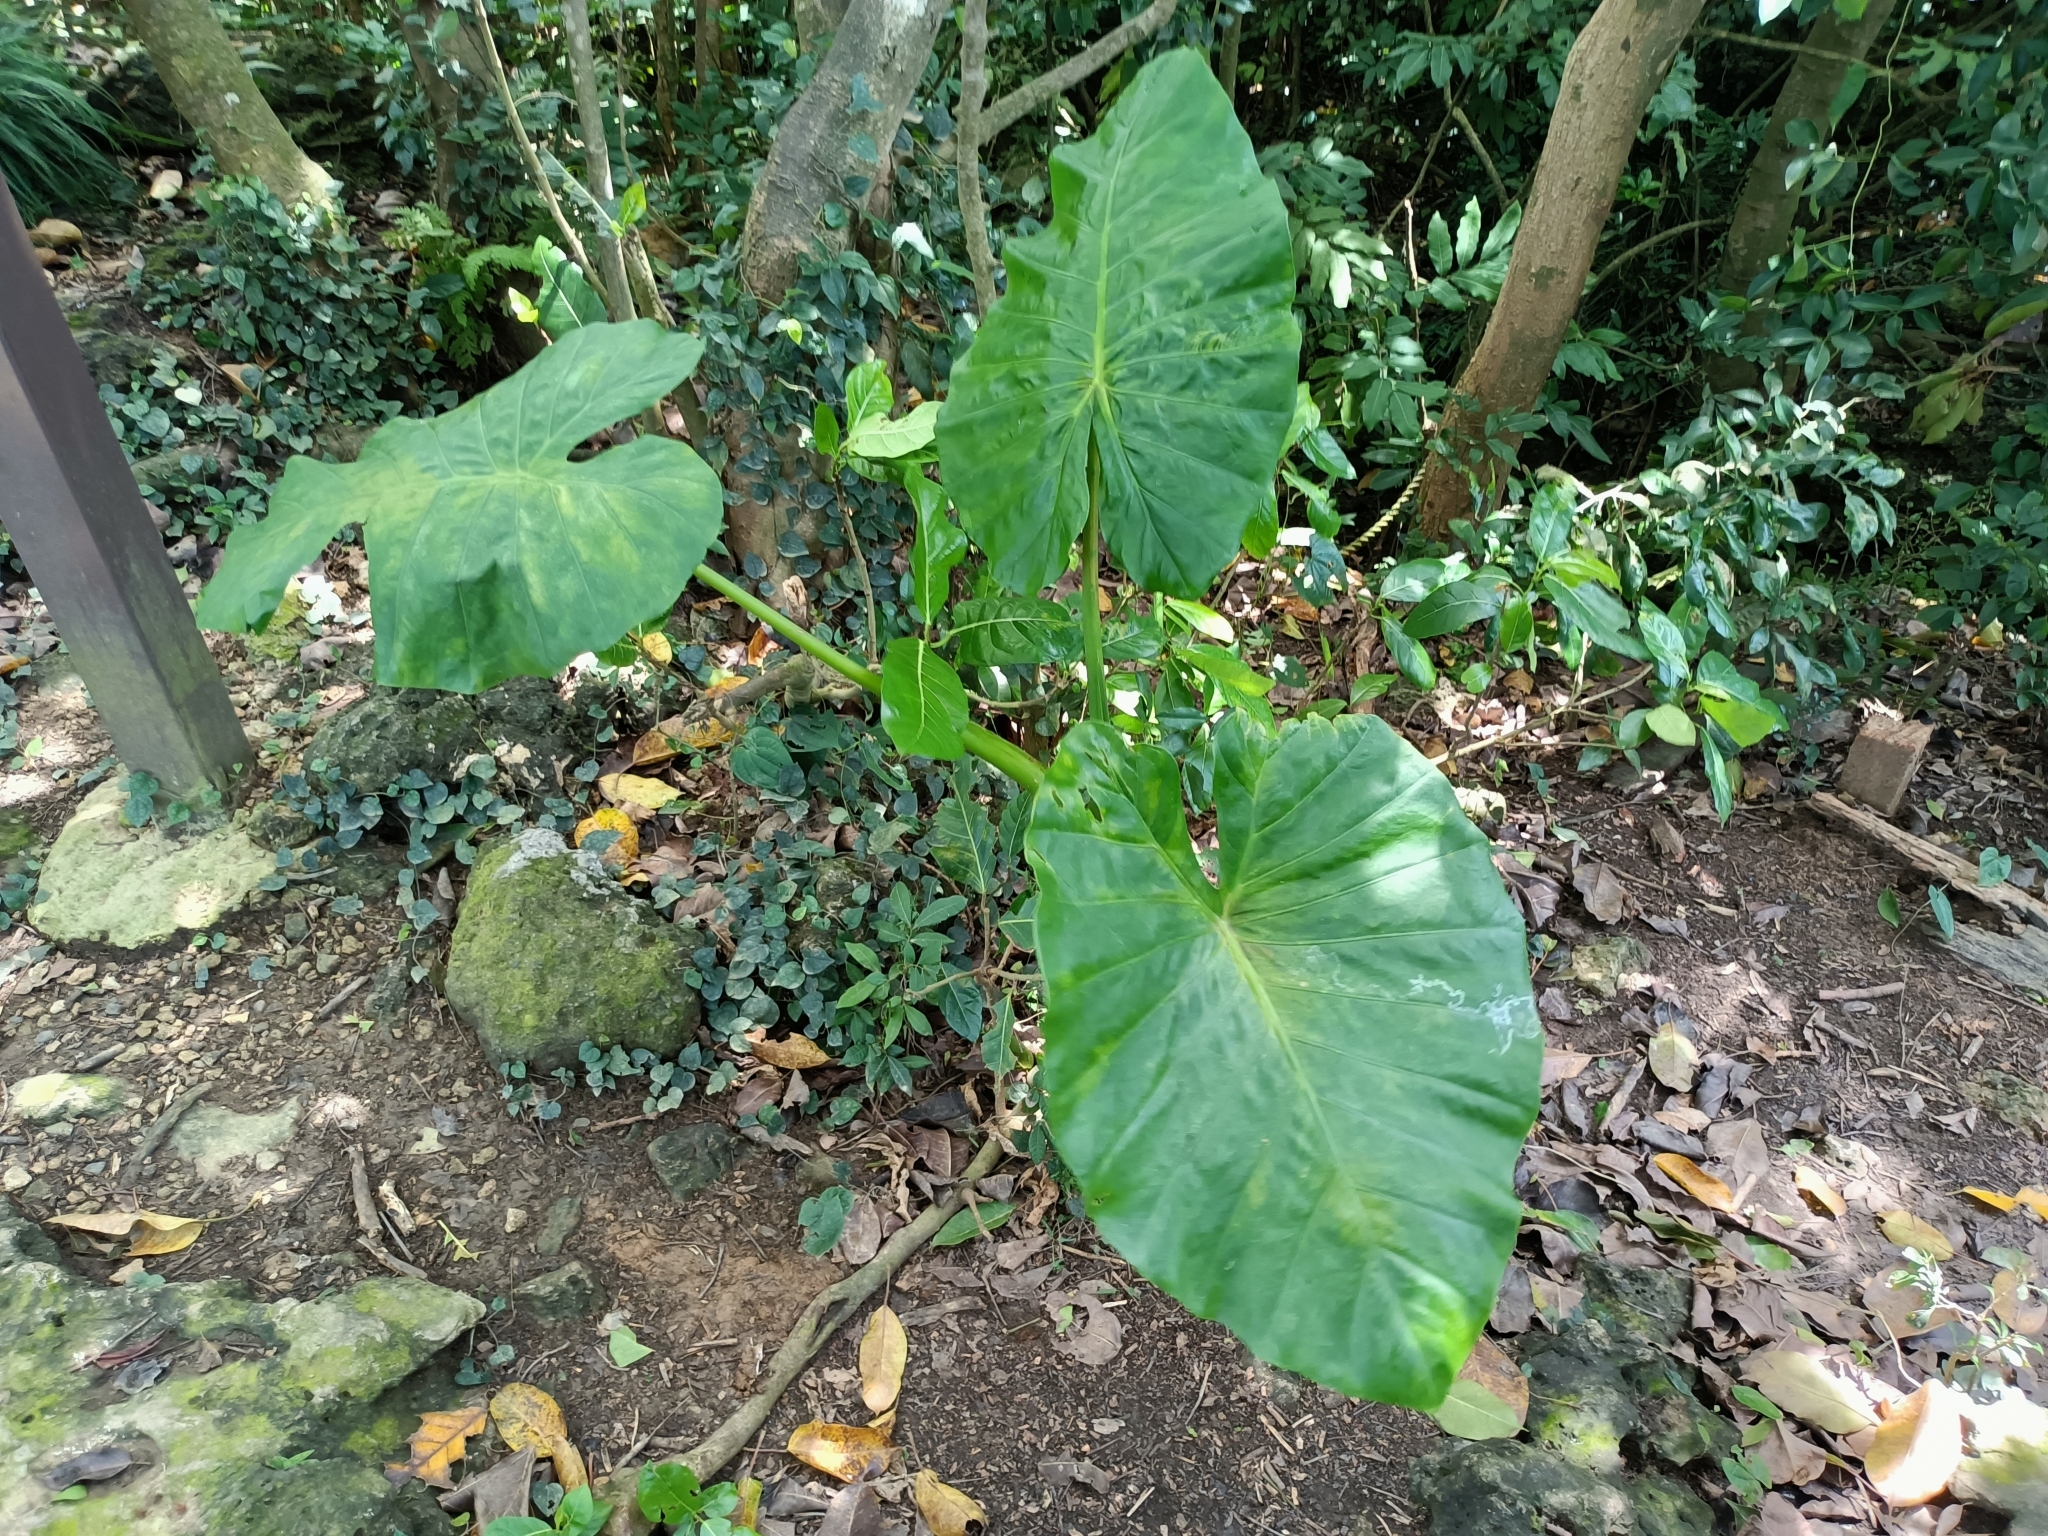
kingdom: Plantae
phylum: Tracheophyta
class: Liliopsida
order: Alismatales
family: Araceae
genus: Alocasia
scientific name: Alocasia odora
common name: Asian taro
